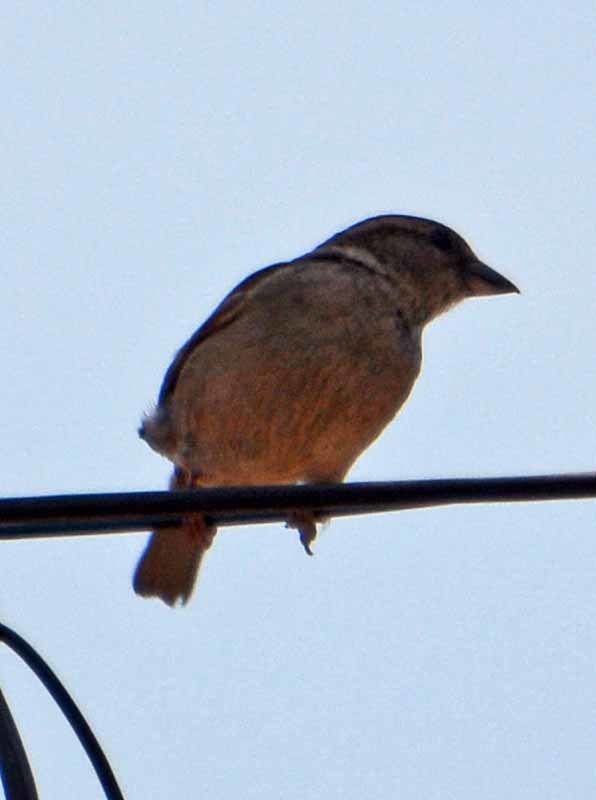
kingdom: Animalia
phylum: Chordata
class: Aves
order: Passeriformes
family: Passeridae
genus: Passer
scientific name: Passer domesticus
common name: House sparrow
